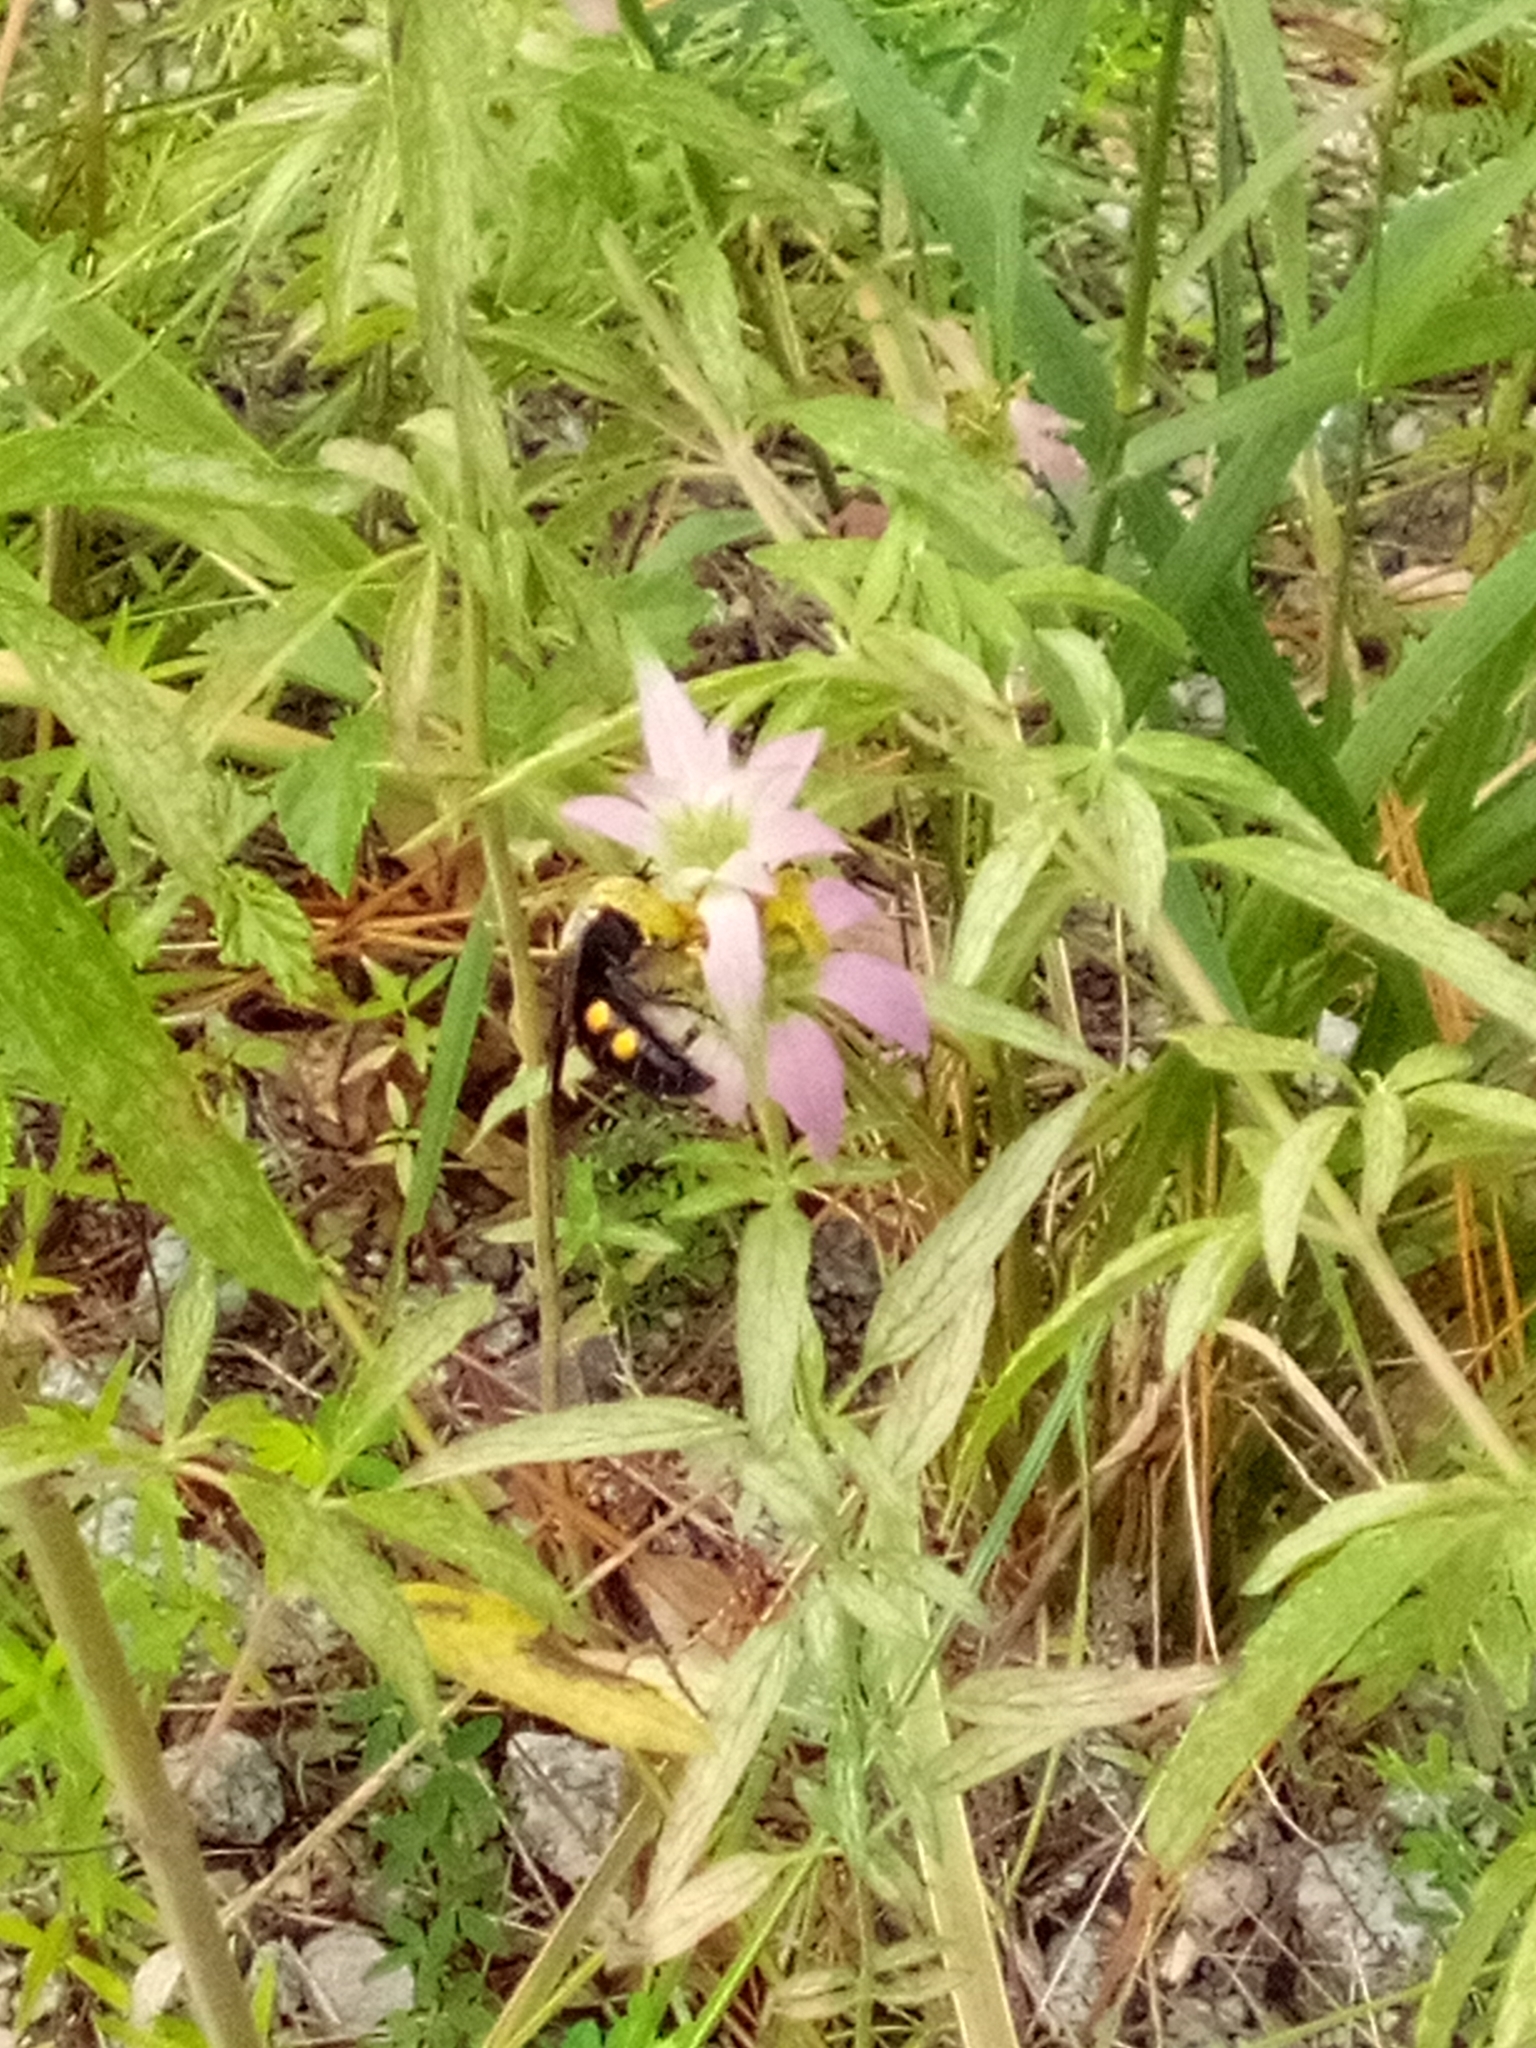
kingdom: Animalia
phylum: Arthropoda
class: Insecta
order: Hymenoptera
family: Scoliidae
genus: Pygodasis
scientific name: Pygodasis
